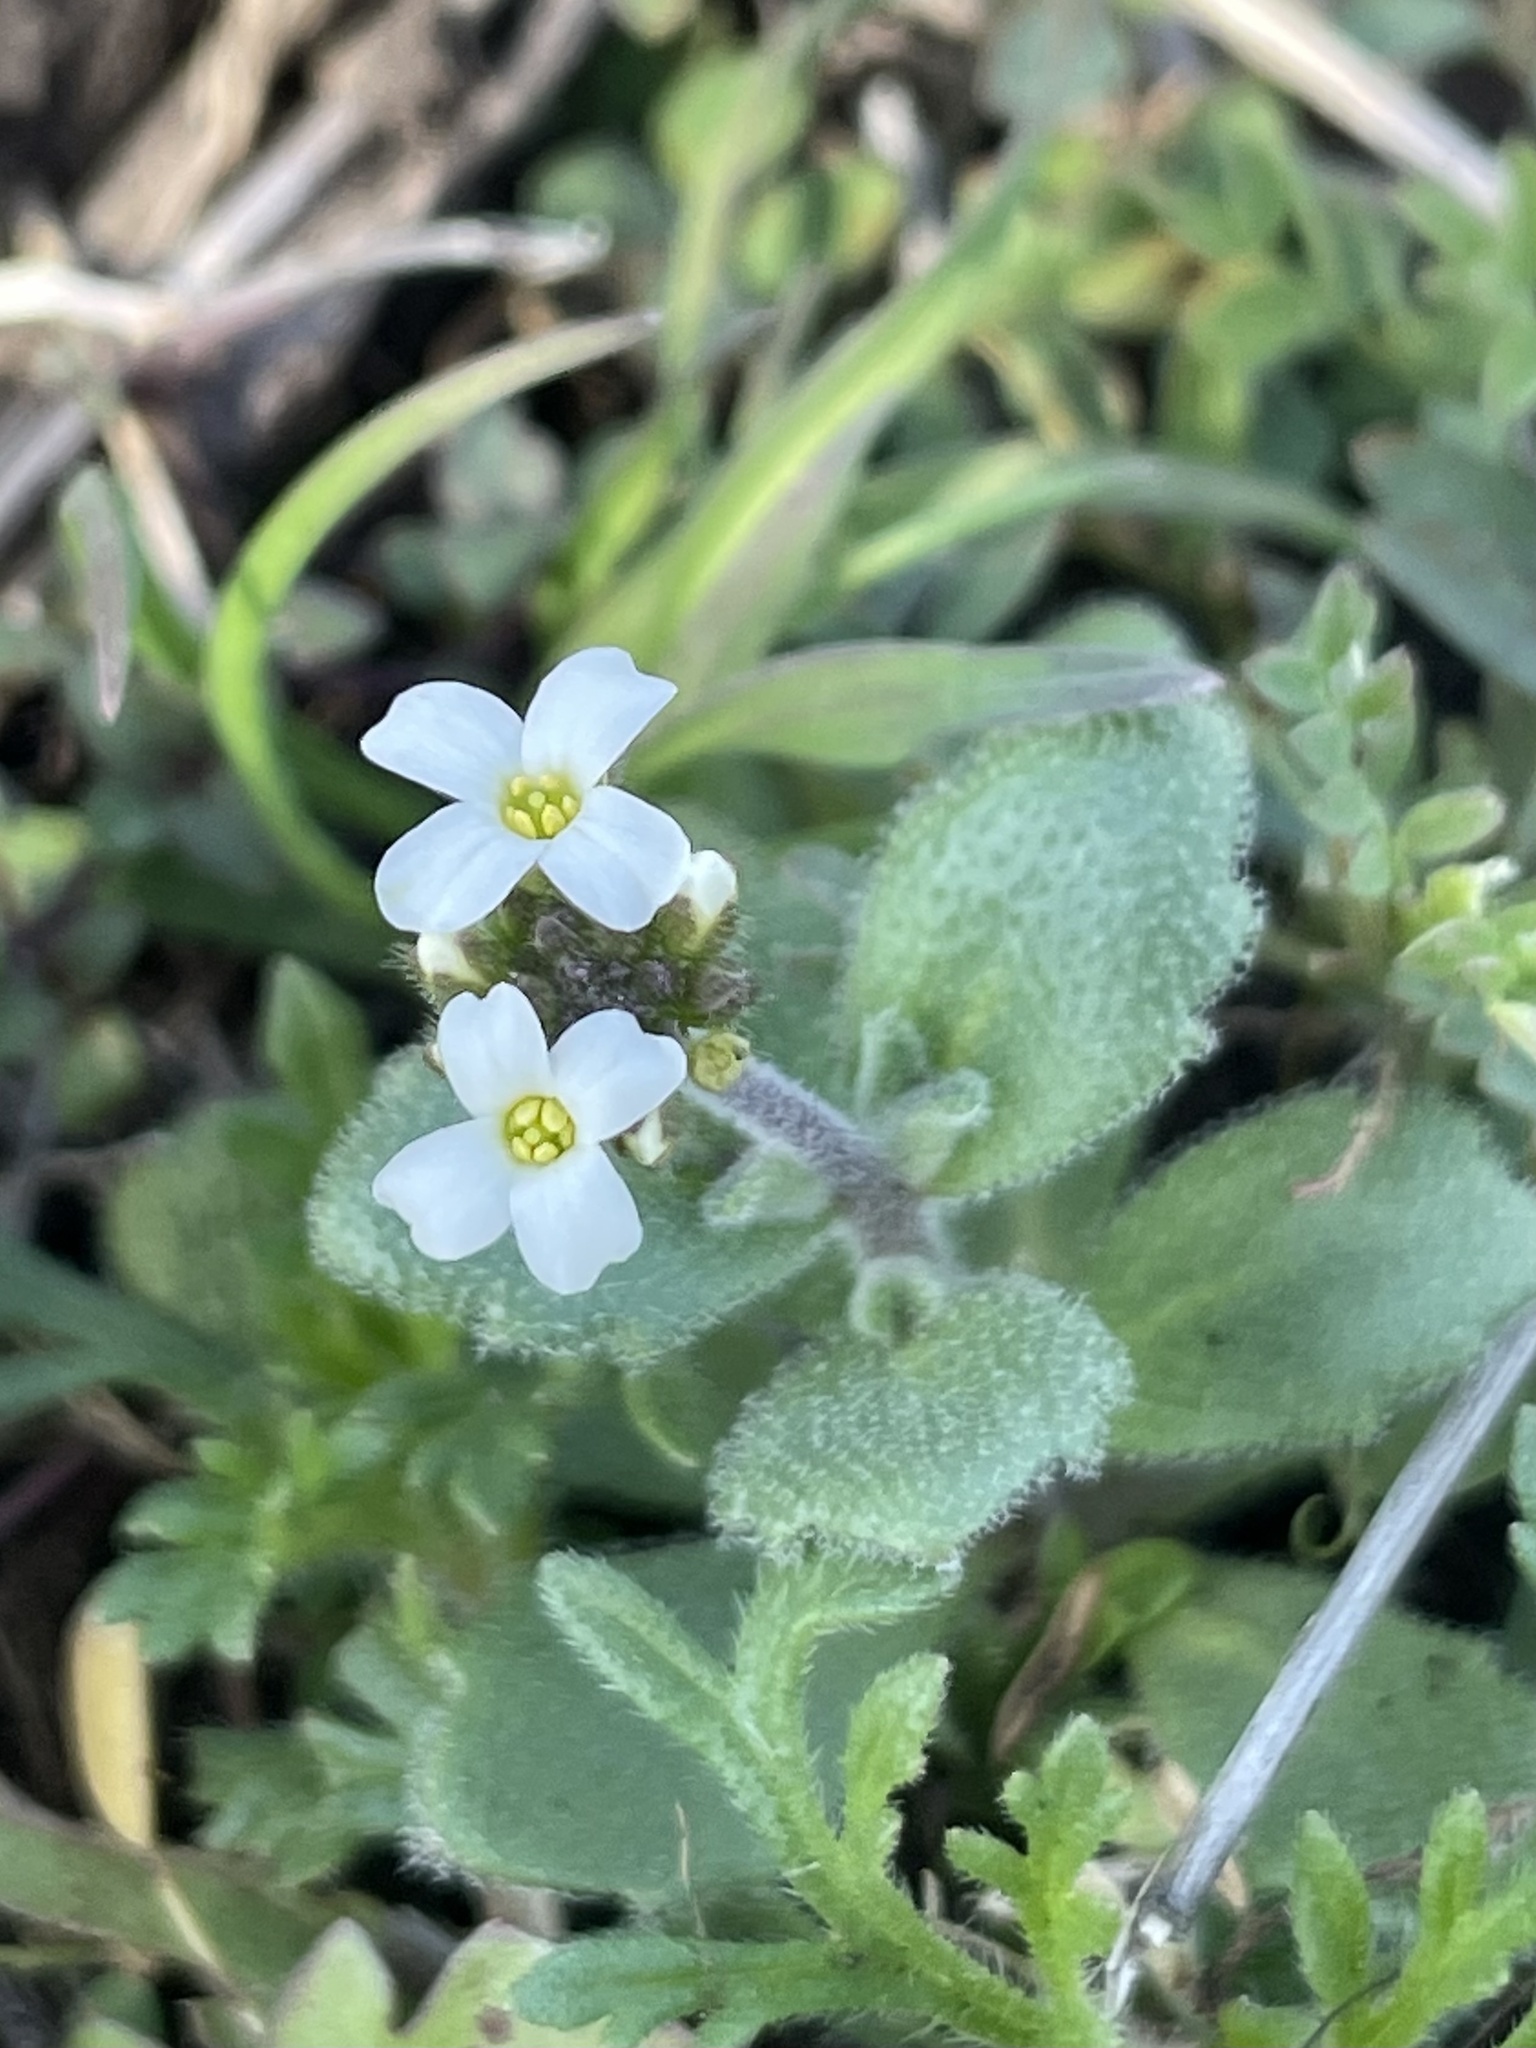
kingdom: Plantae
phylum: Tracheophyta
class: Magnoliopsida
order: Brassicales
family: Brassicaceae
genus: Tomostima
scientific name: Tomostima cuneifolia
